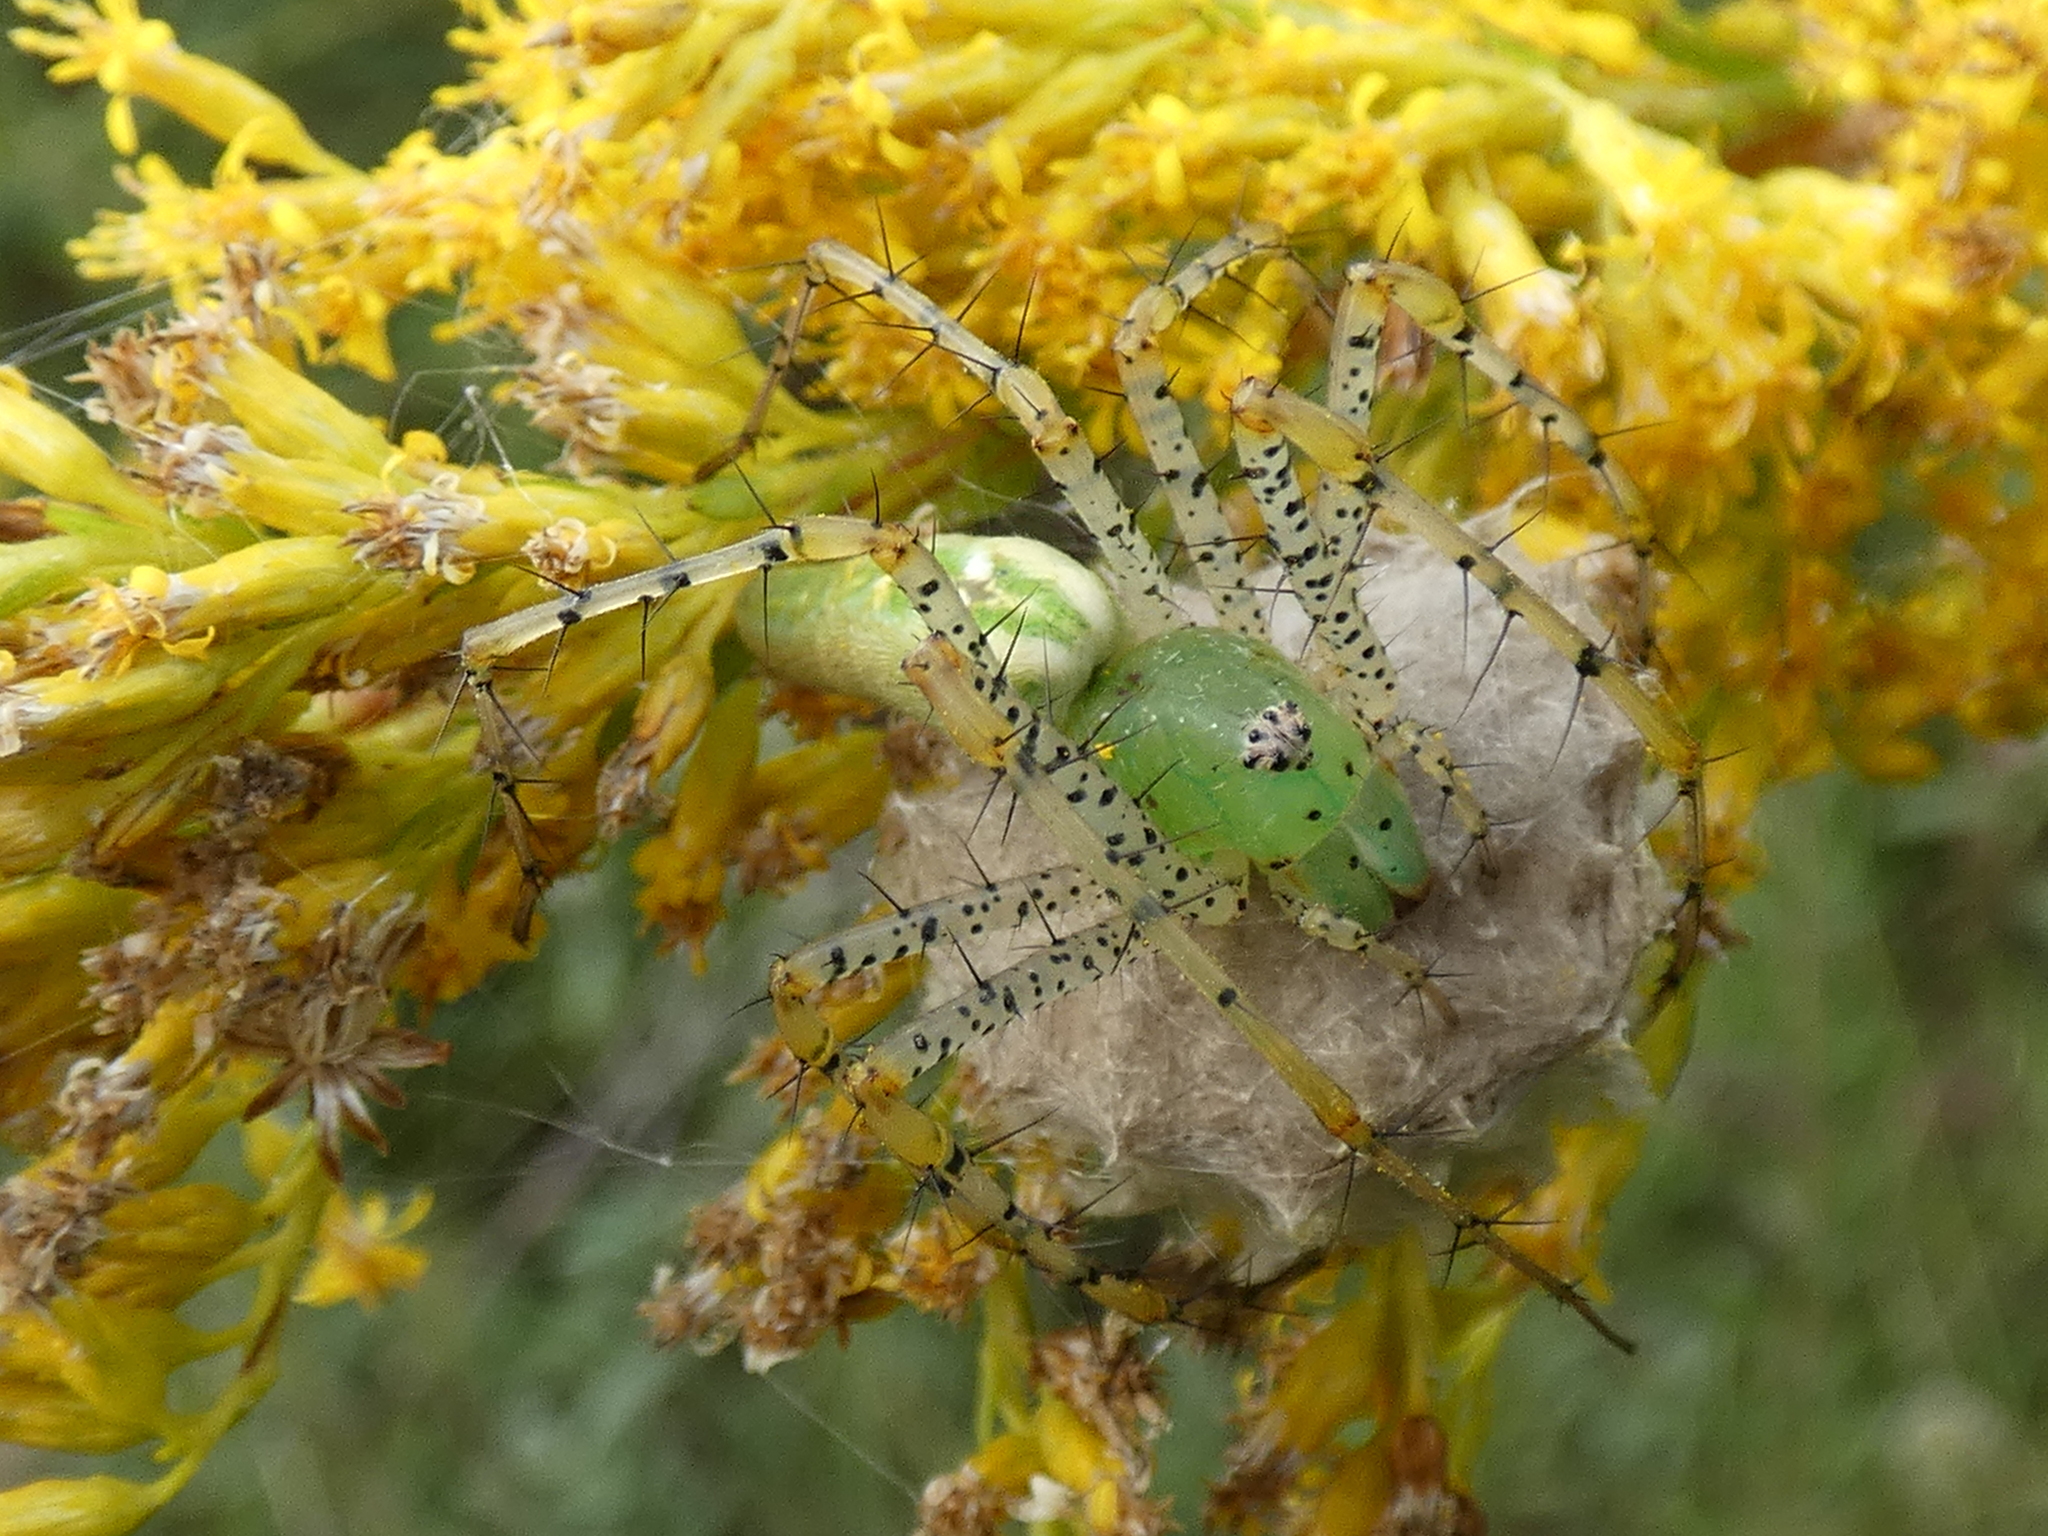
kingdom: Animalia
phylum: Arthropoda
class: Arachnida
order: Araneae
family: Oxyopidae
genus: Peucetia
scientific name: Peucetia viridans
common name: Lynx spiders
